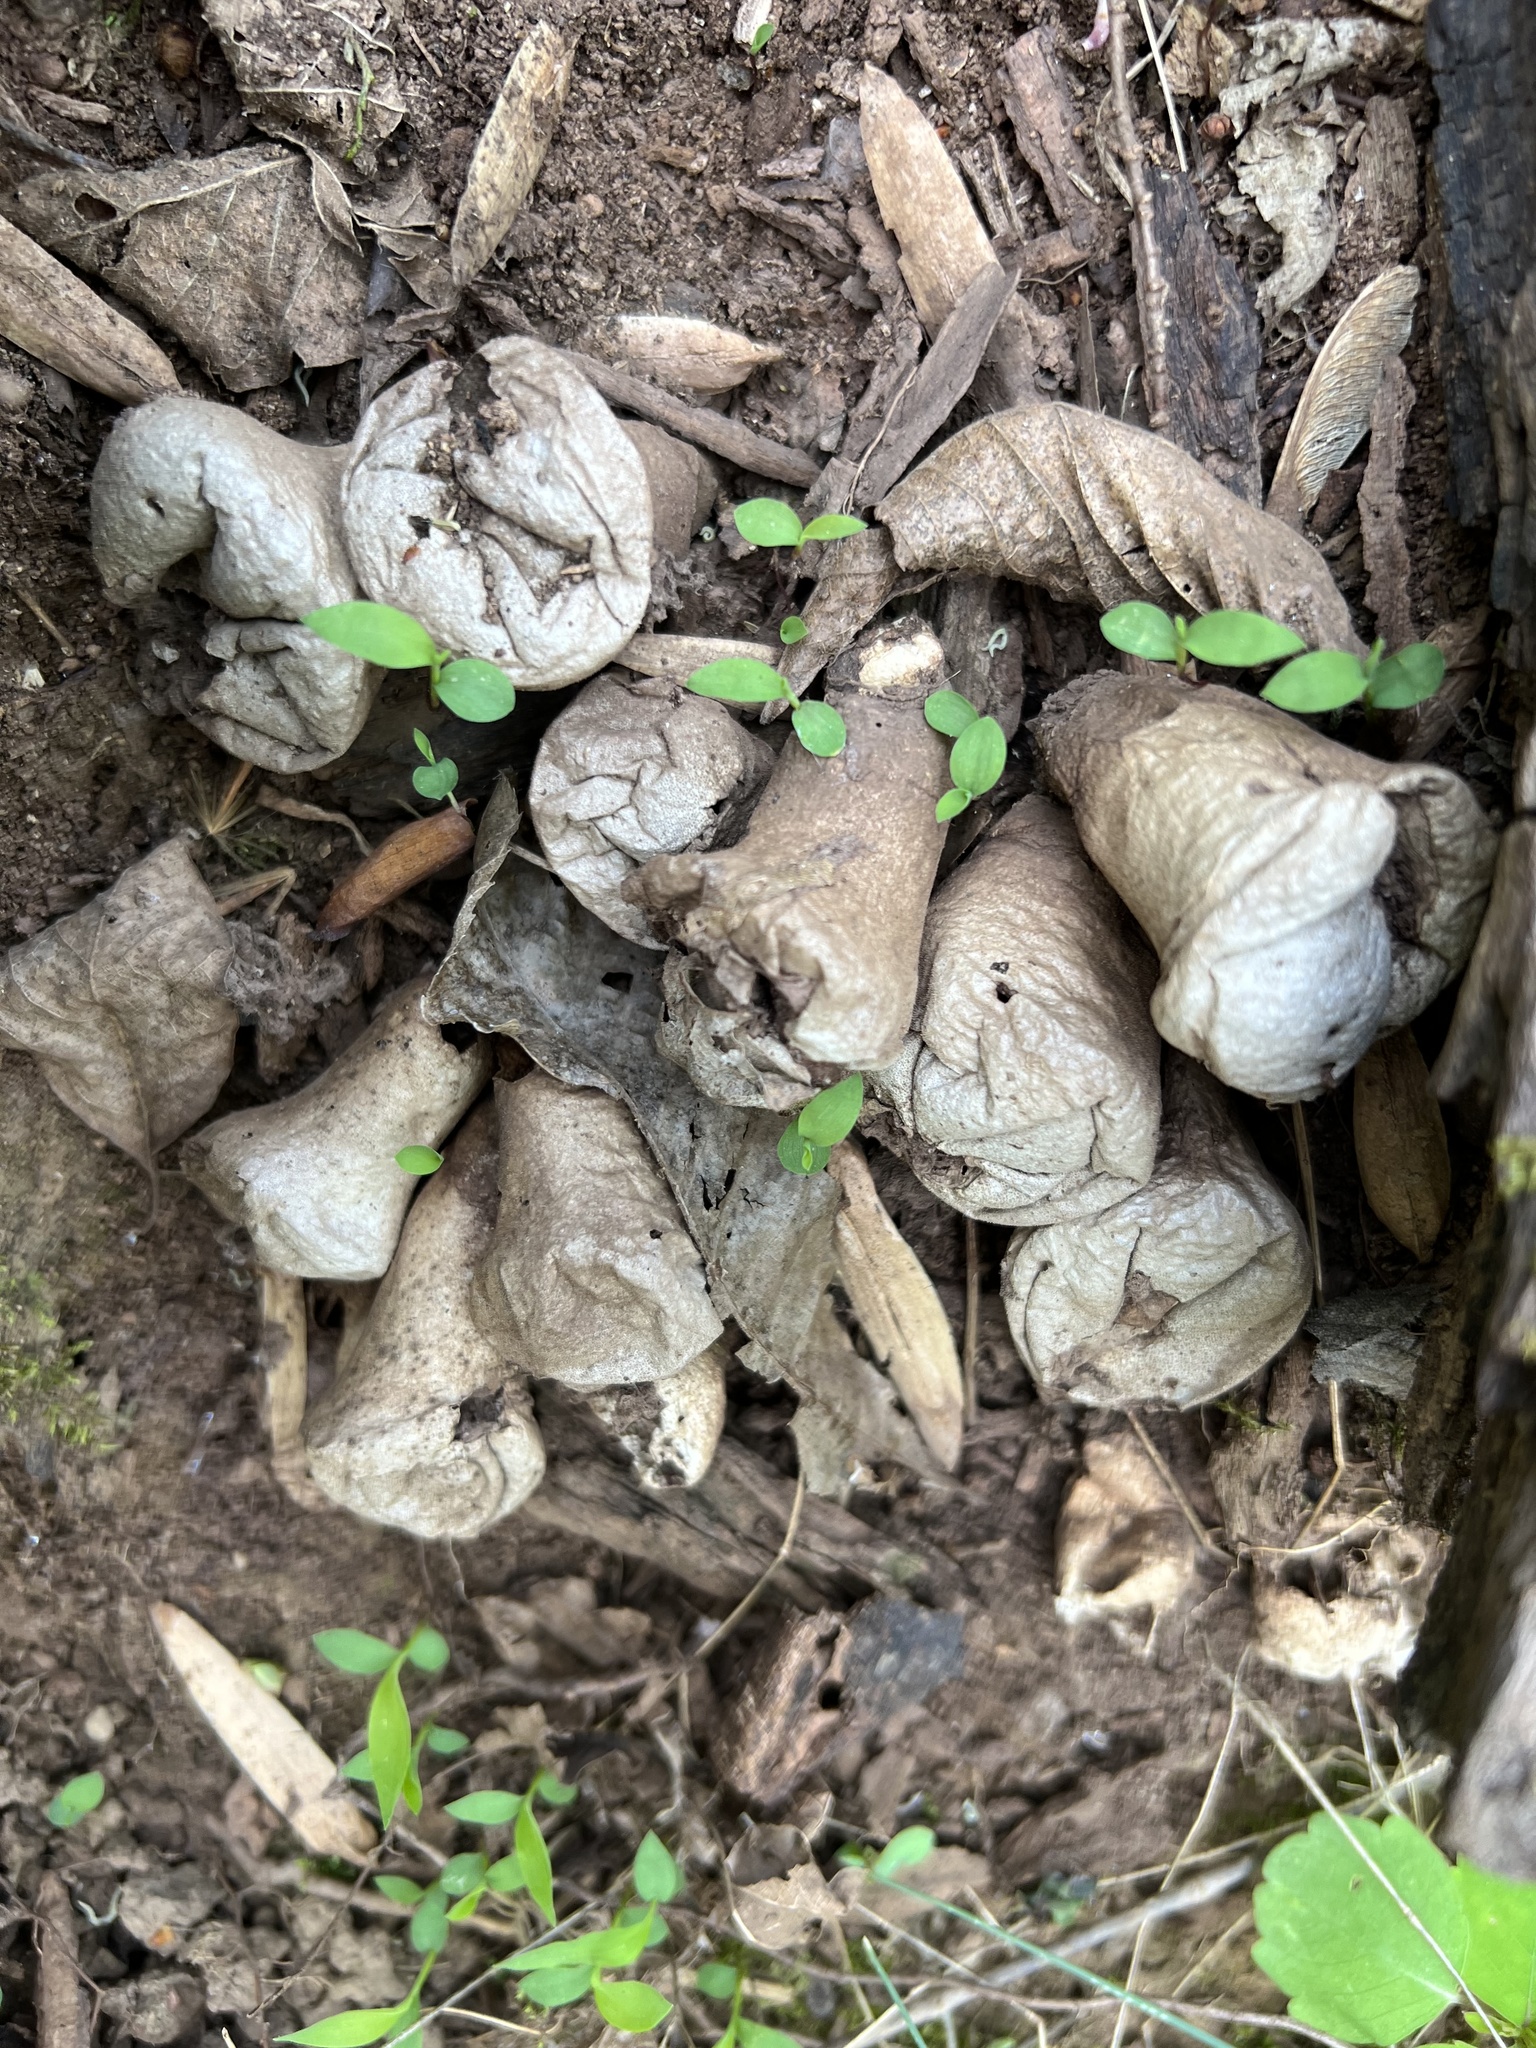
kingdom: Fungi
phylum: Basidiomycota
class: Agaricomycetes
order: Agaricales
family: Lycoperdaceae
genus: Apioperdon
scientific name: Apioperdon pyriforme
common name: Pear-shaped puffball
